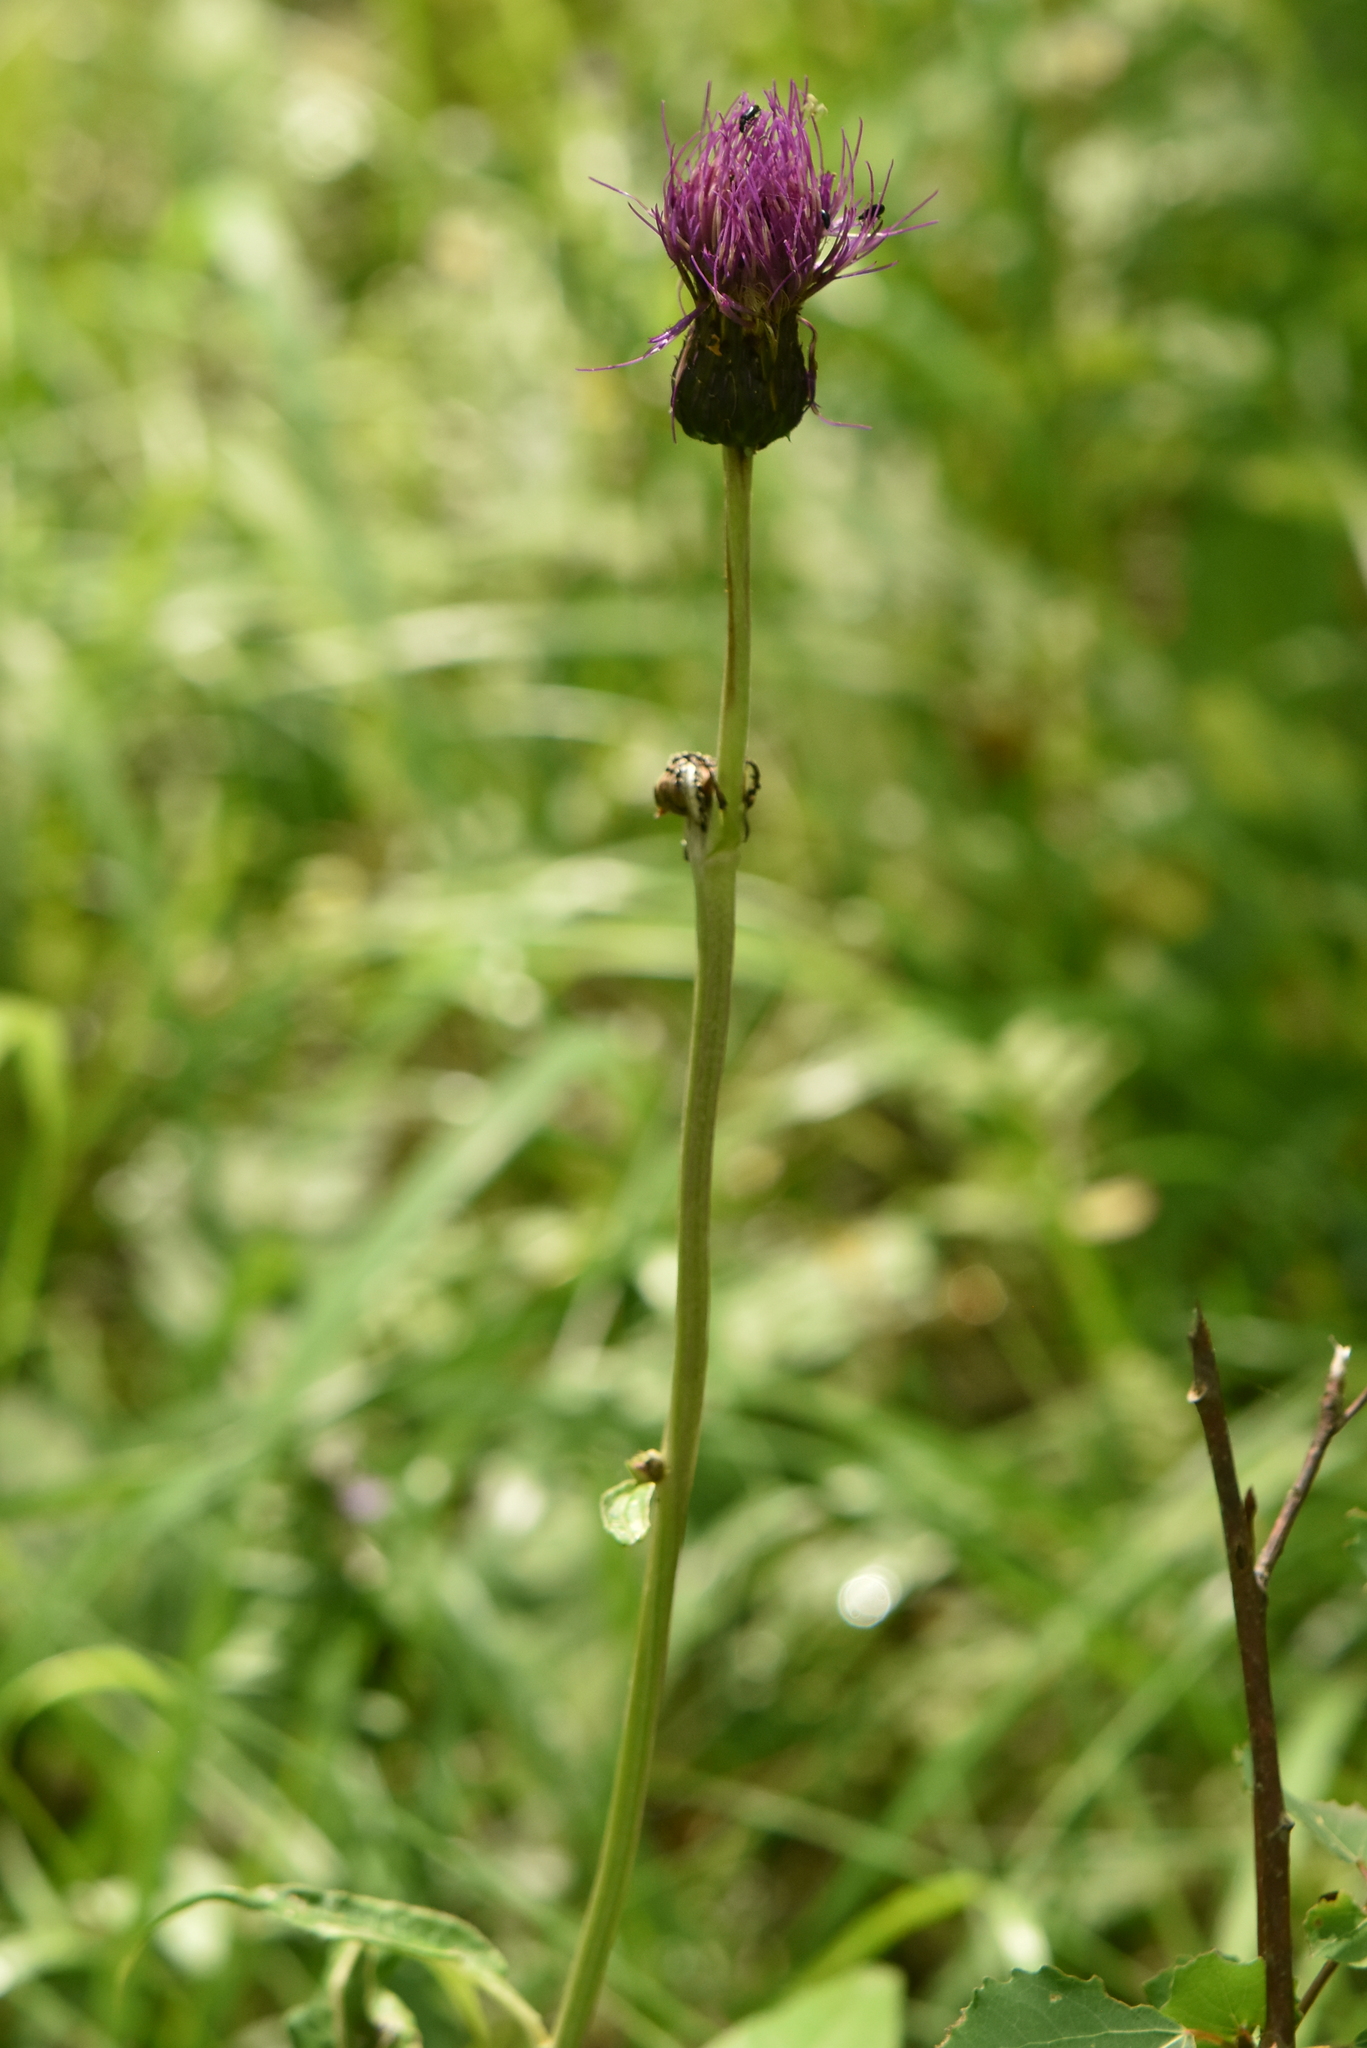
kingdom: Plantae
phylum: Tracheophyta
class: Magnoliopsida
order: Asterales
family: Asteraceae
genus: Cirsium
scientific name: Cirsium heterophyllum
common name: Melancholy thistle
